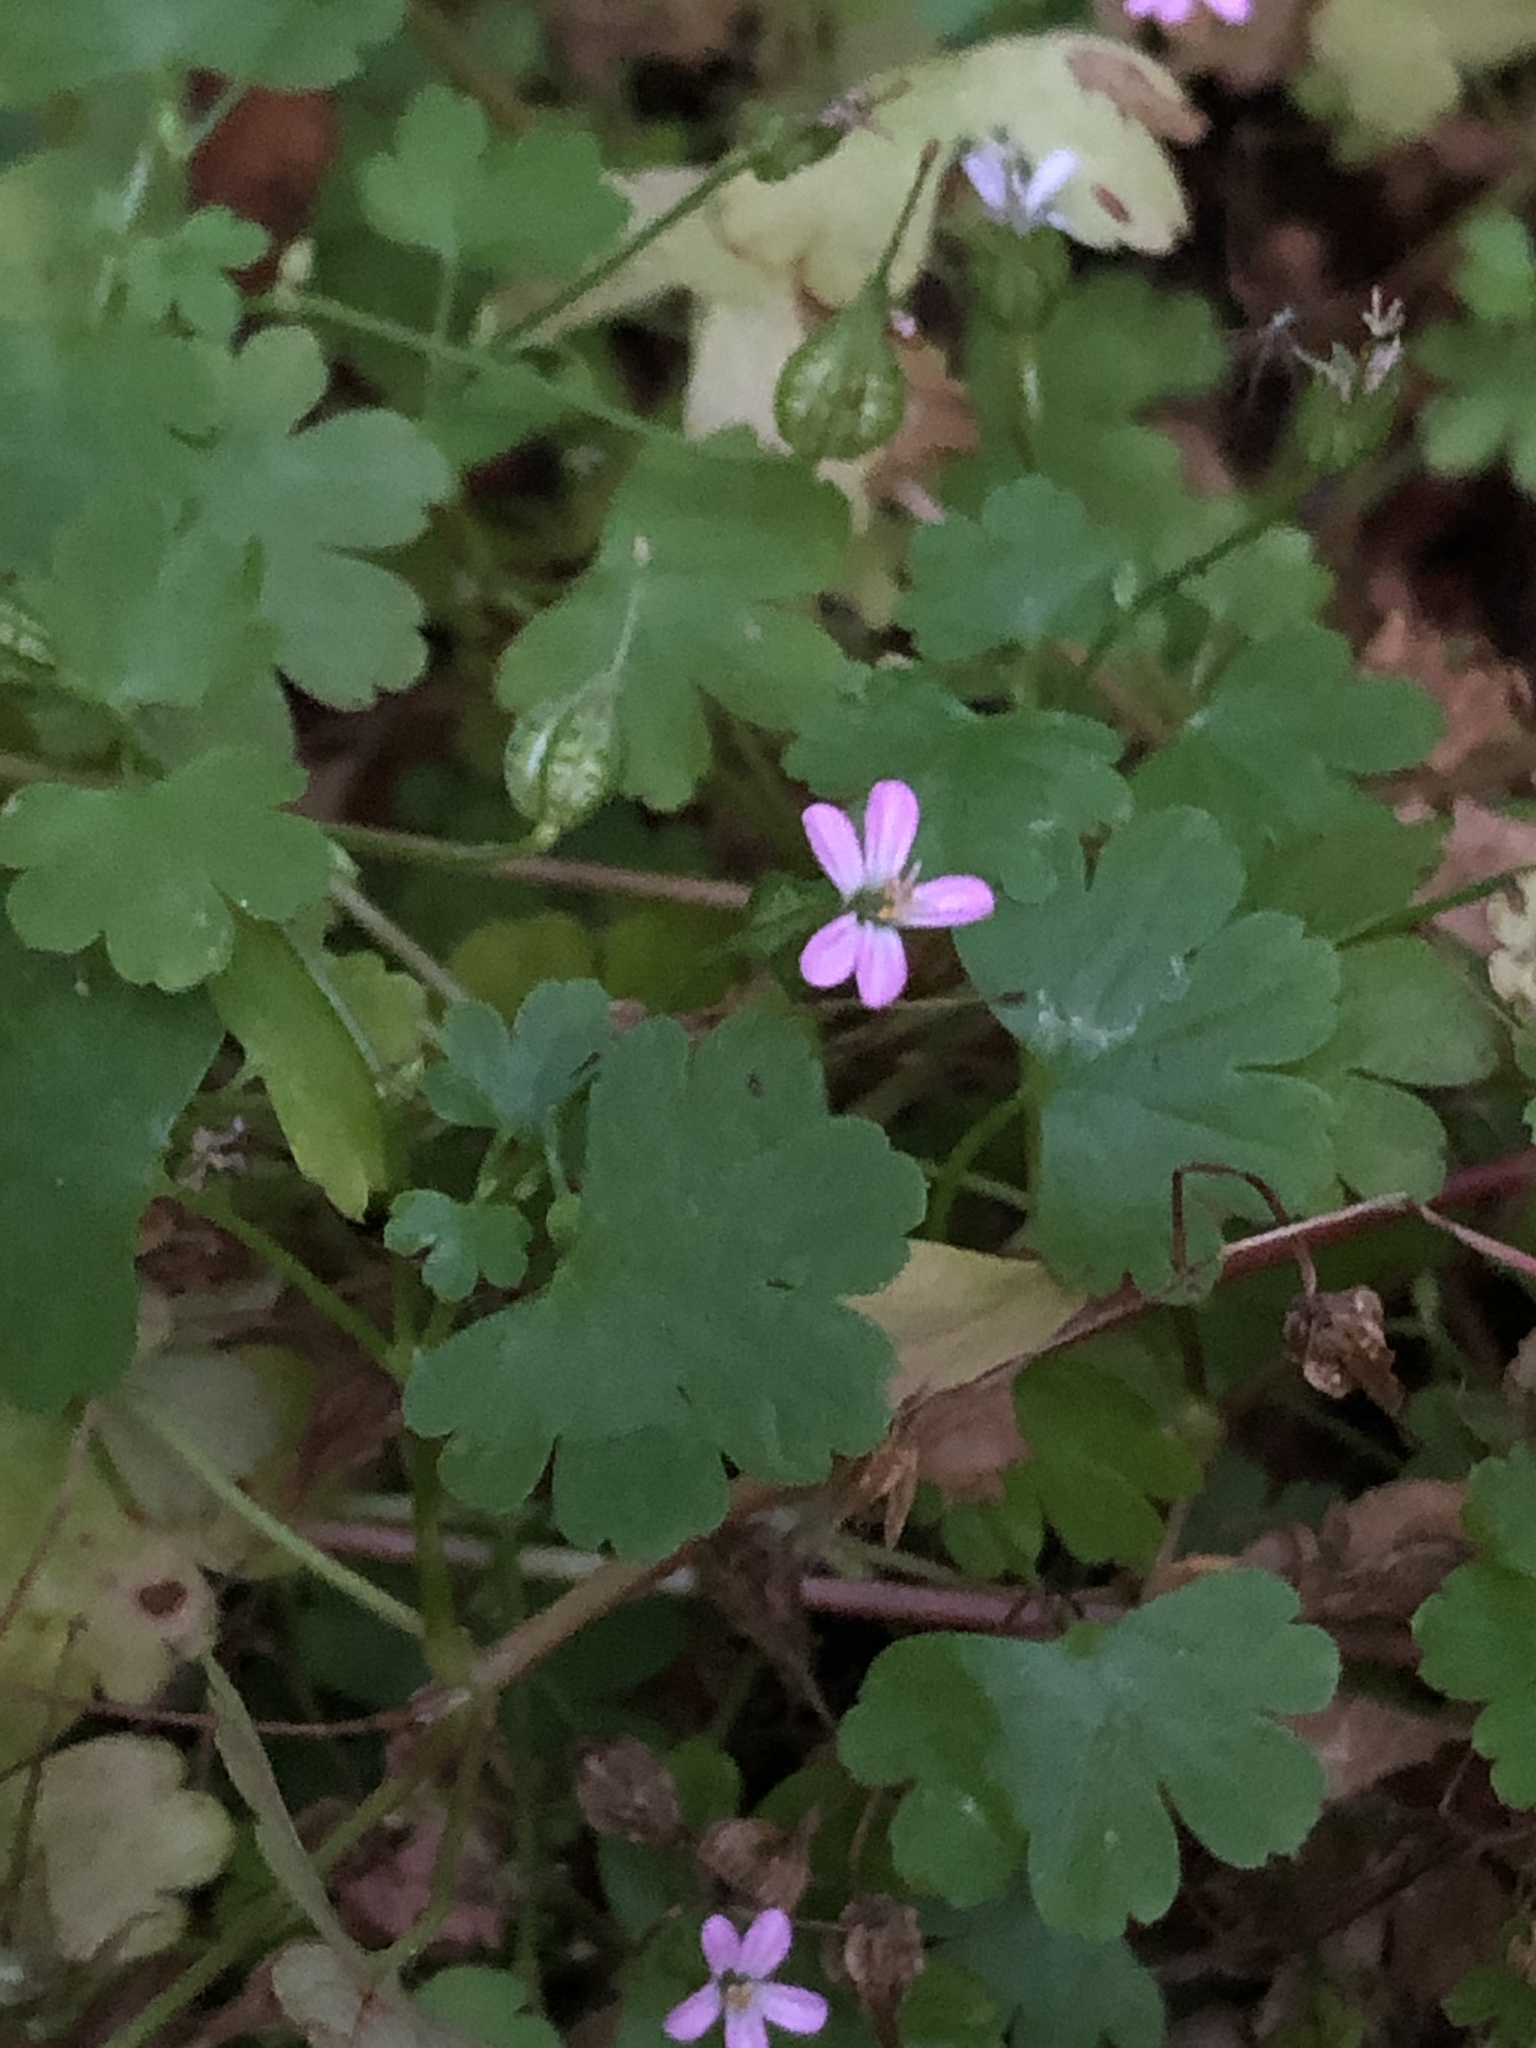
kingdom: Plantae
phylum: Tracheophyta
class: Magnoliopsida
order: Geraniales
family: Geraniaceae
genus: Geranium
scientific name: Geranium lucidum
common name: Shining crane's-bill
